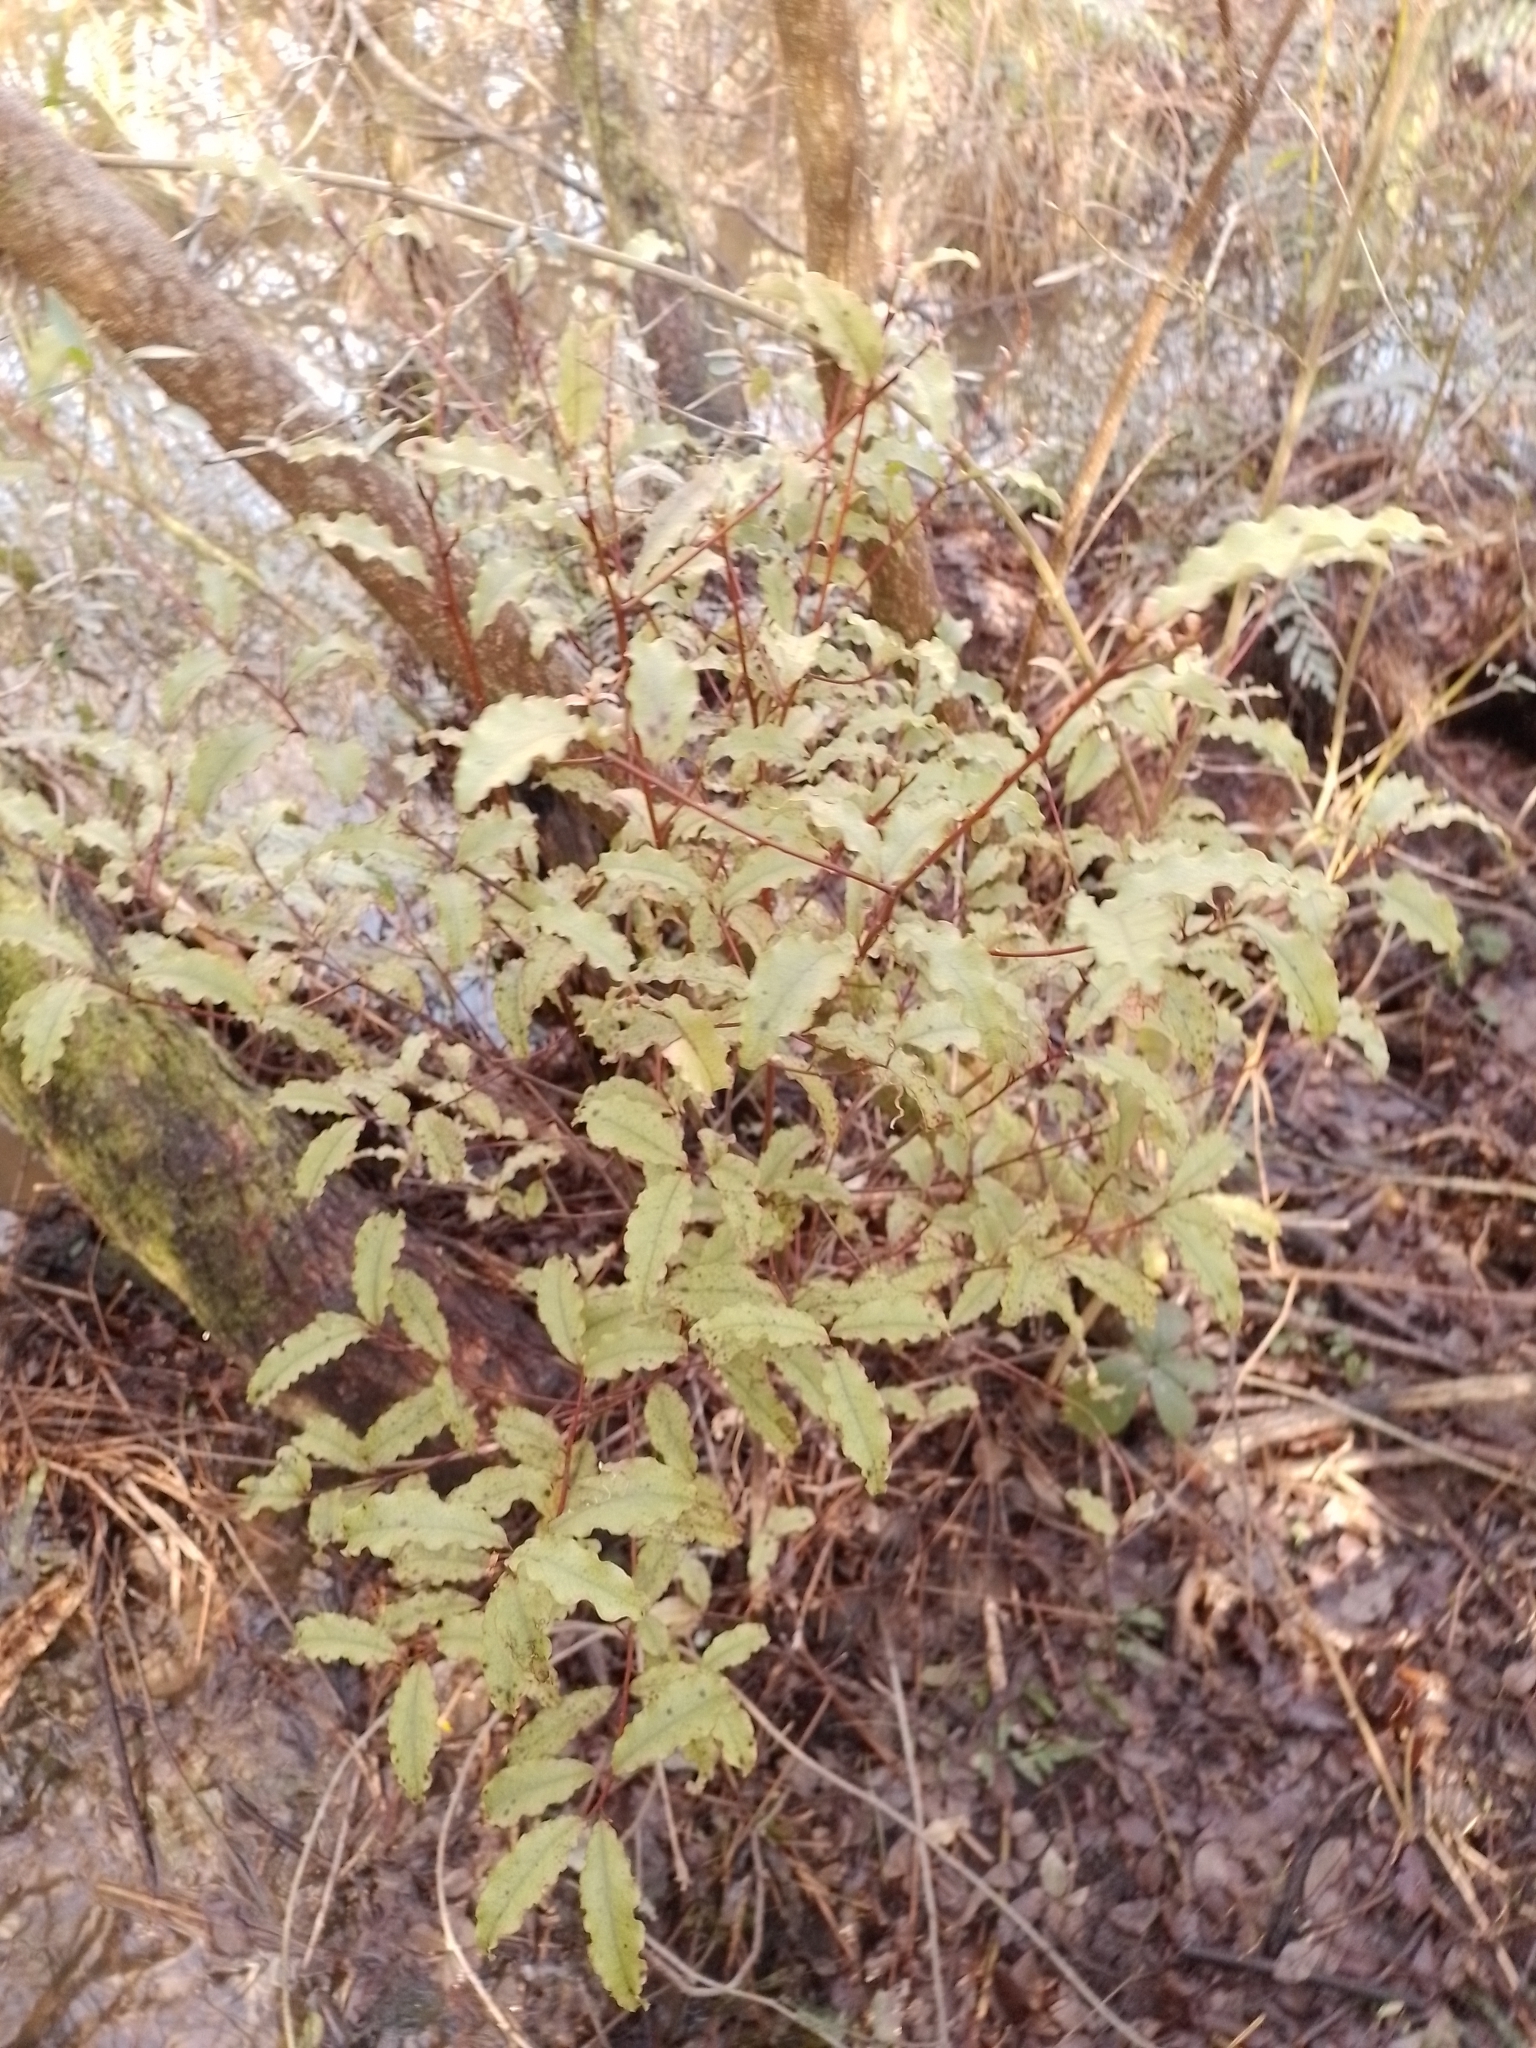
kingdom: Plantae
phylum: Tracheophyta
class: Magnoliopsida
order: Ericales
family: Primulaceae
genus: Myrsine
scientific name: Myrsine australis
